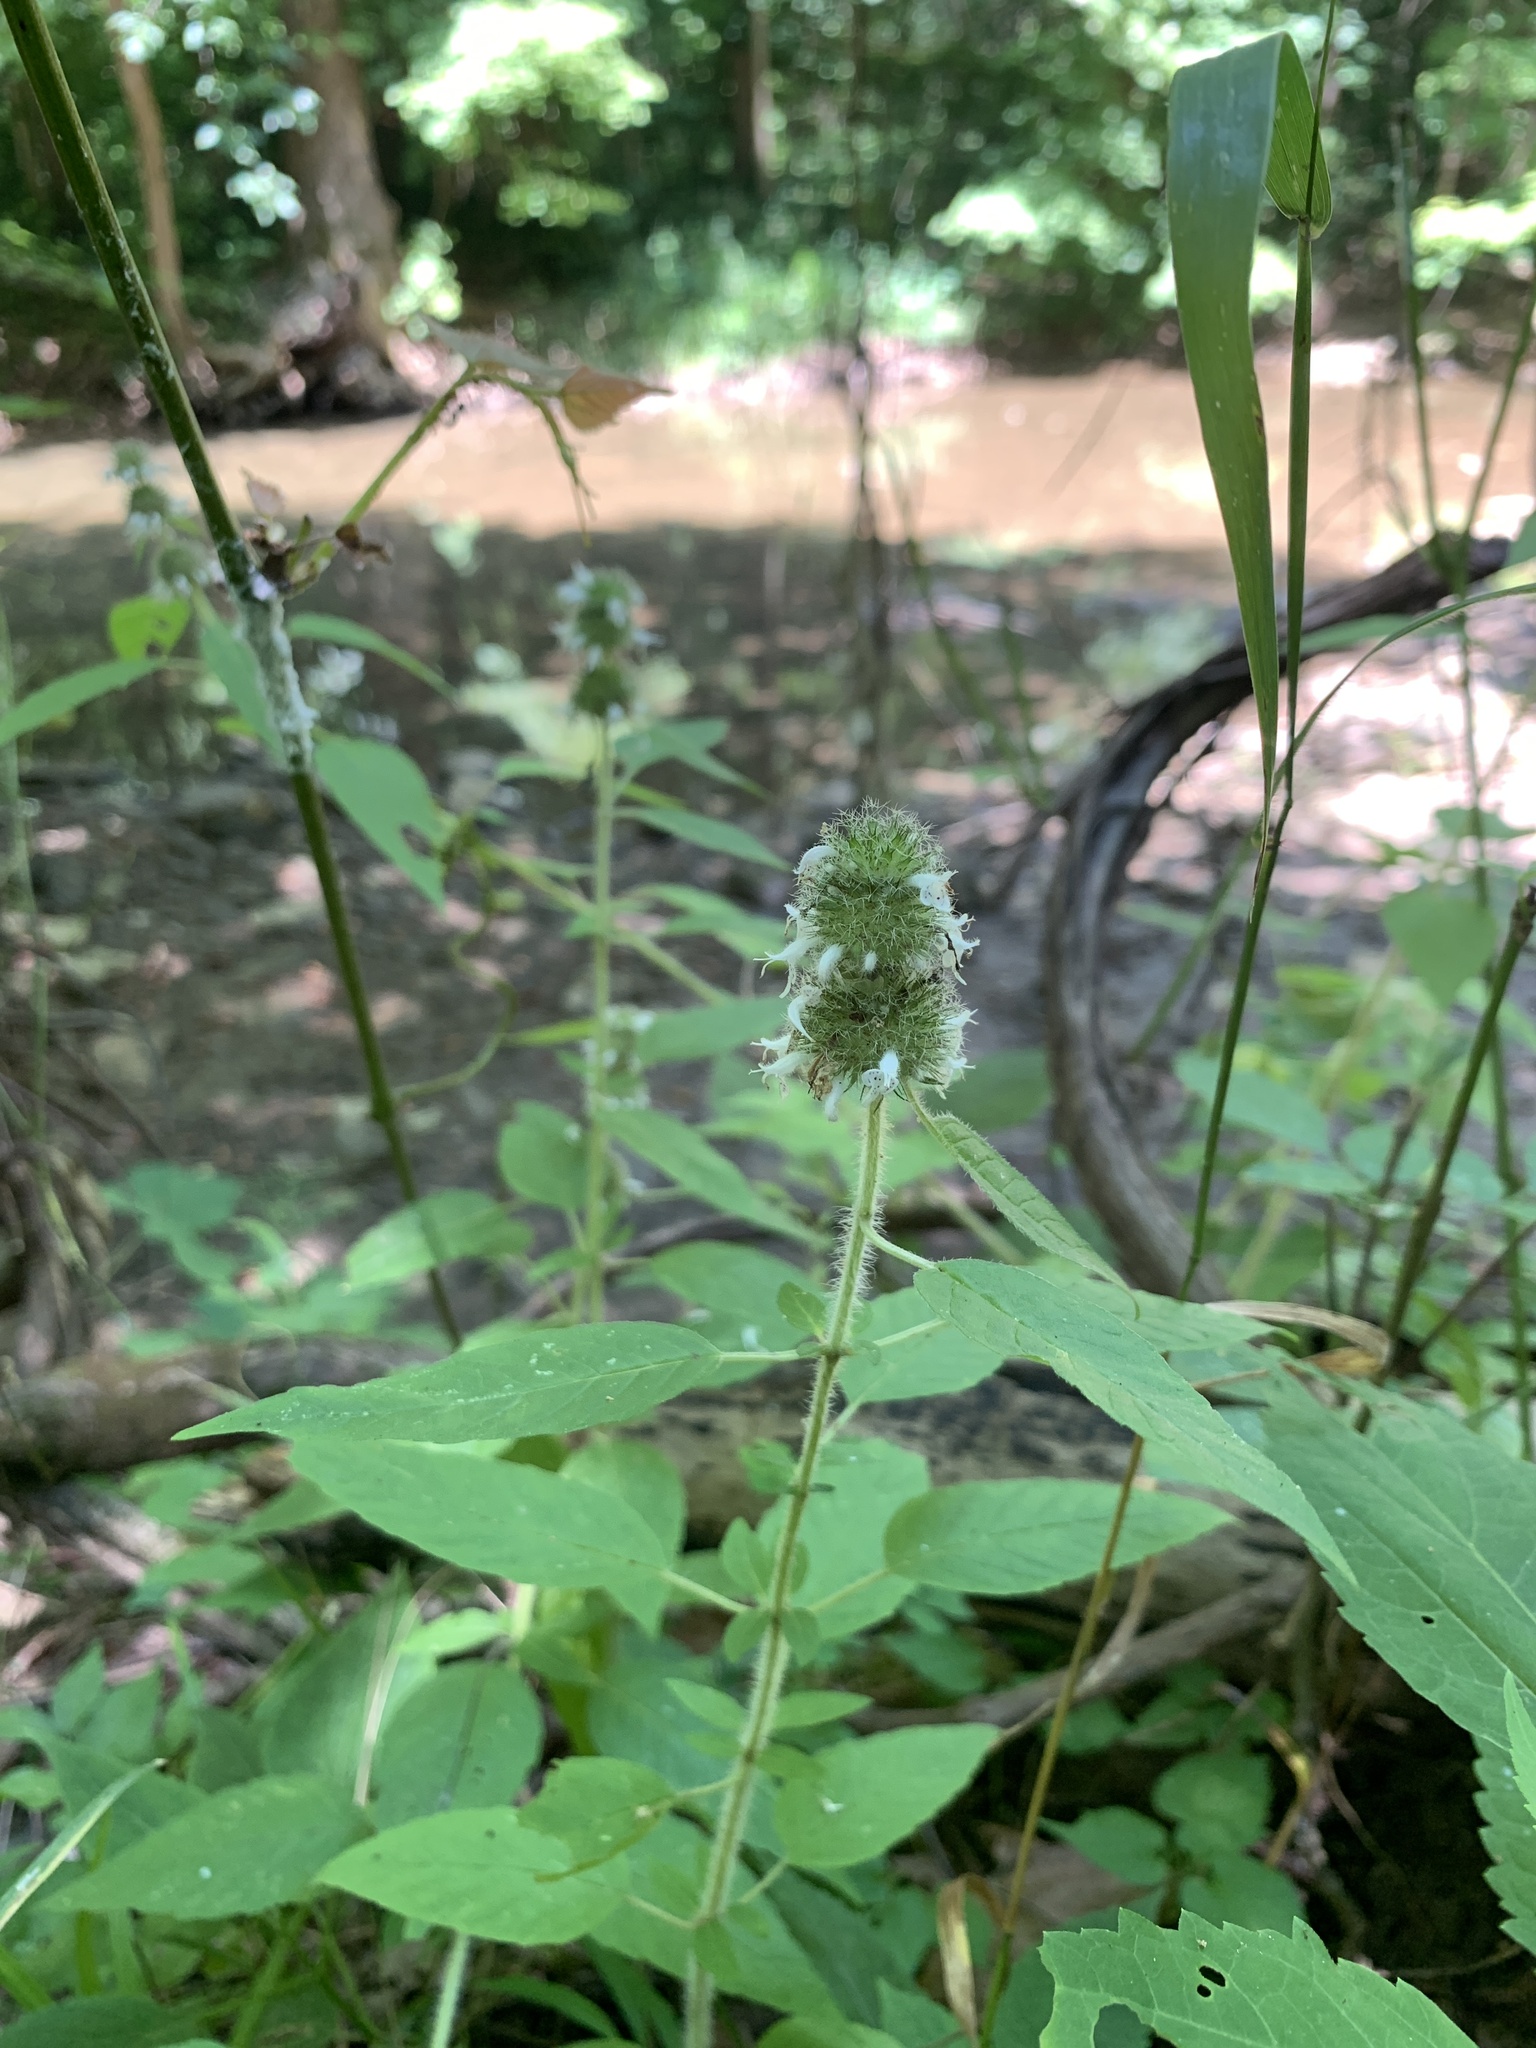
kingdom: Plantae
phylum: Tracheophyta
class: Magnoliopsida
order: Lamiales
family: Lamiaceae
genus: Blephilia
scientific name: Blephilia hirsuta
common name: Hairy blephilia
